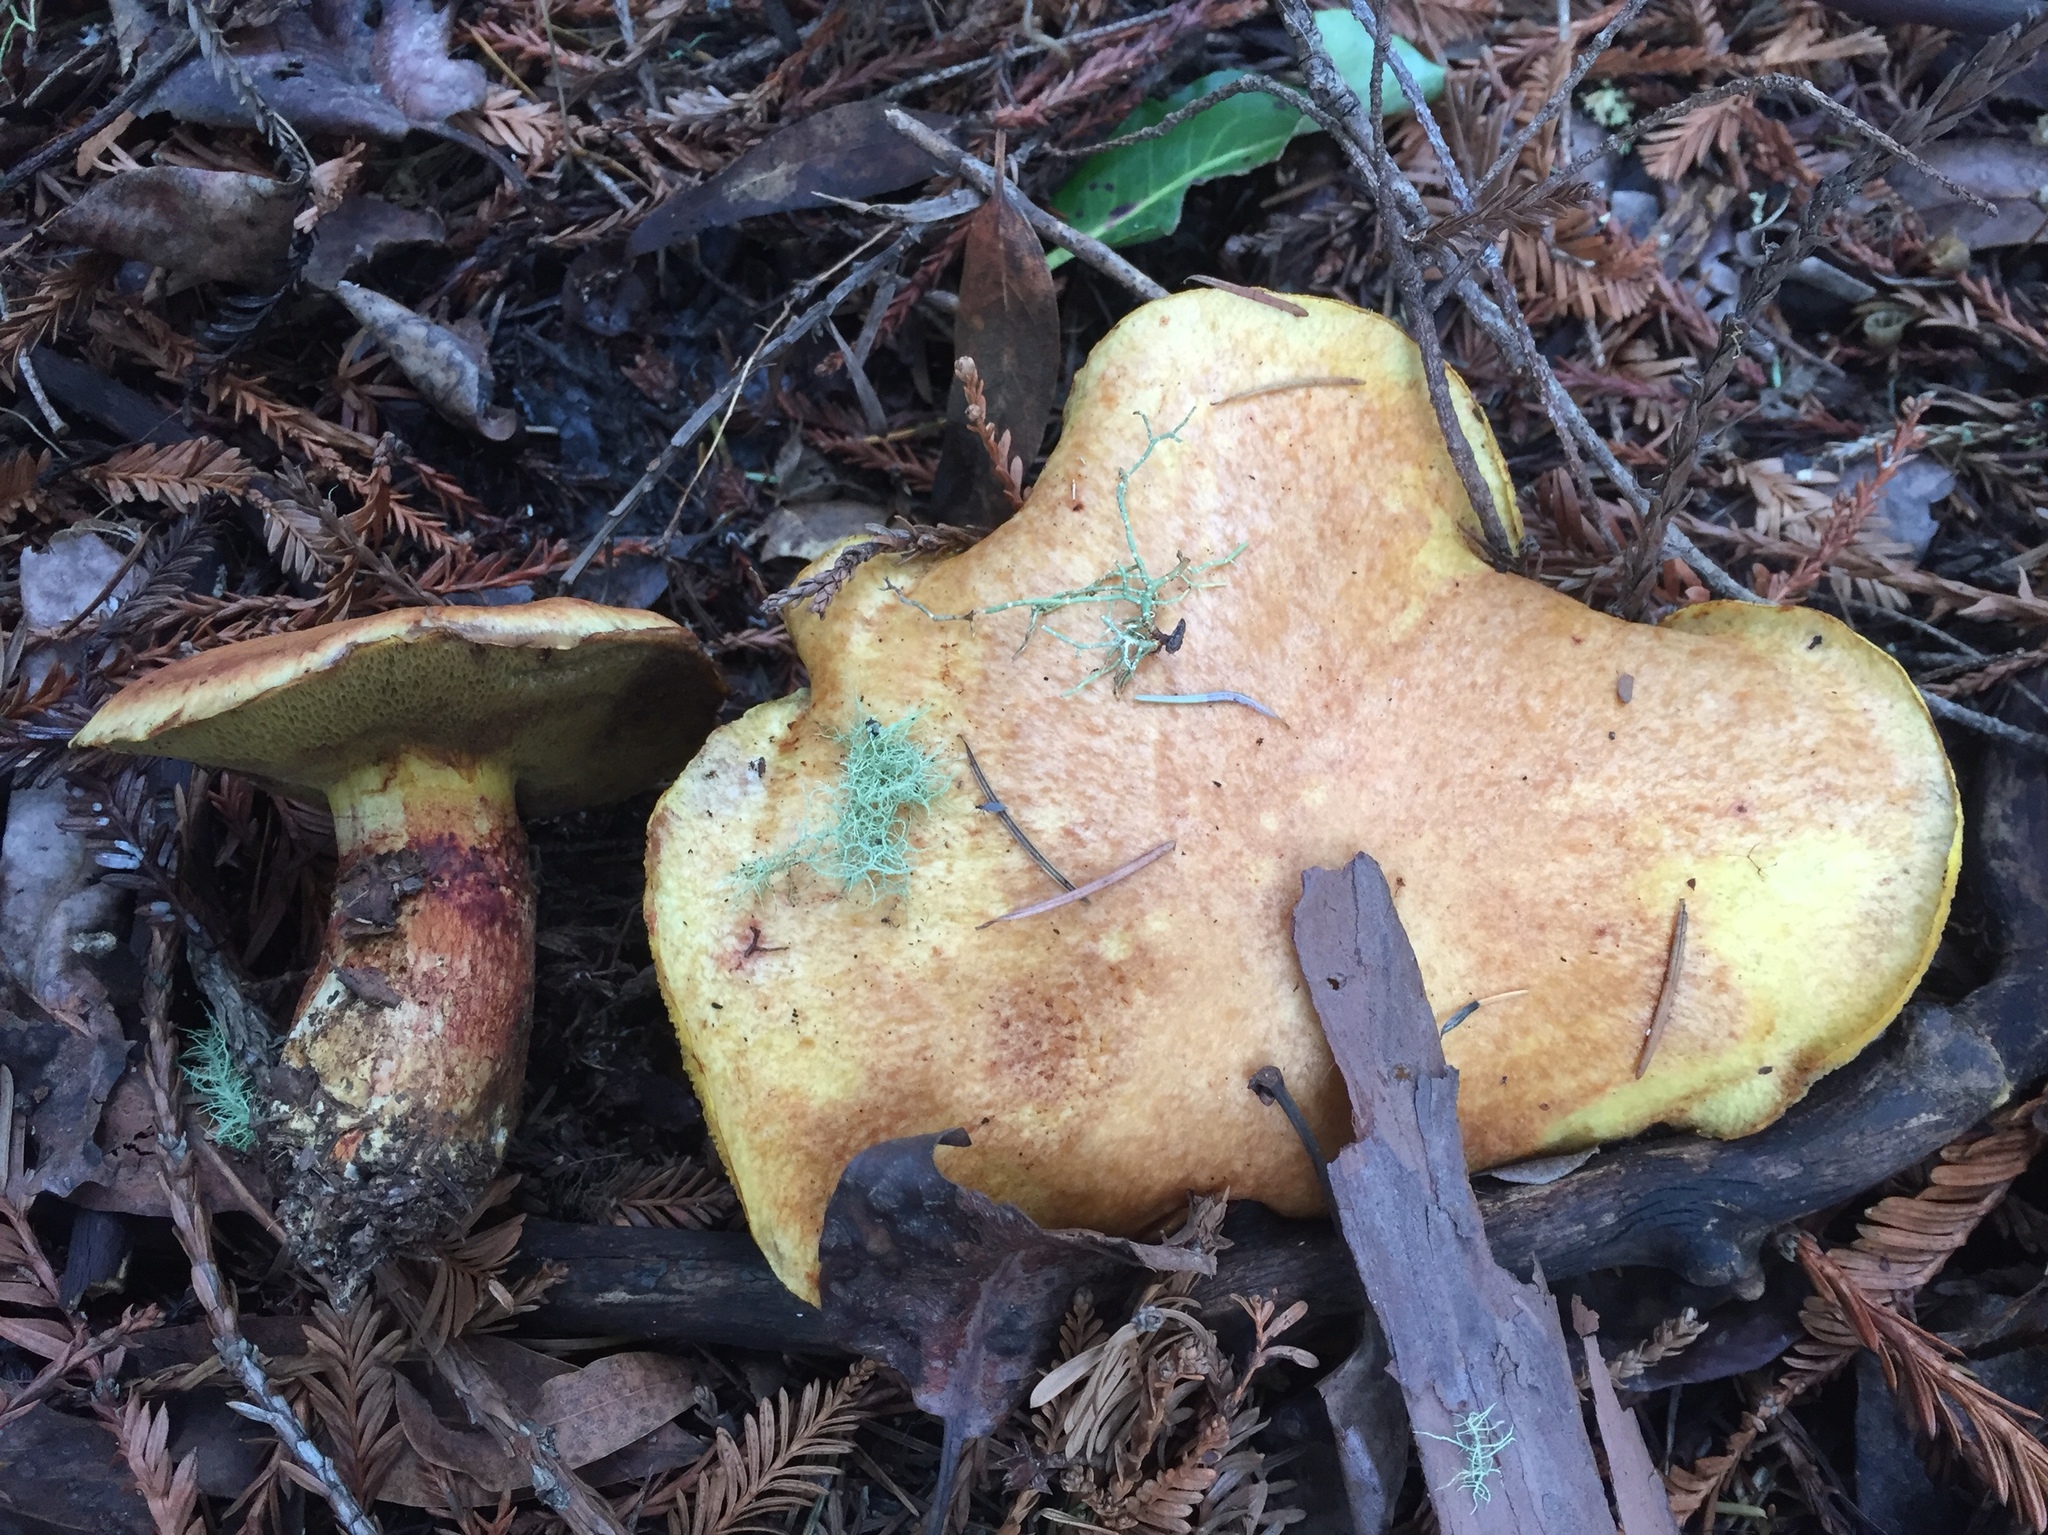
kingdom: Fungi
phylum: Basidiomycota
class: Agaricomycetes
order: Boletales
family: Suillaceae
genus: Suillus
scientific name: Suillus caerulescens
